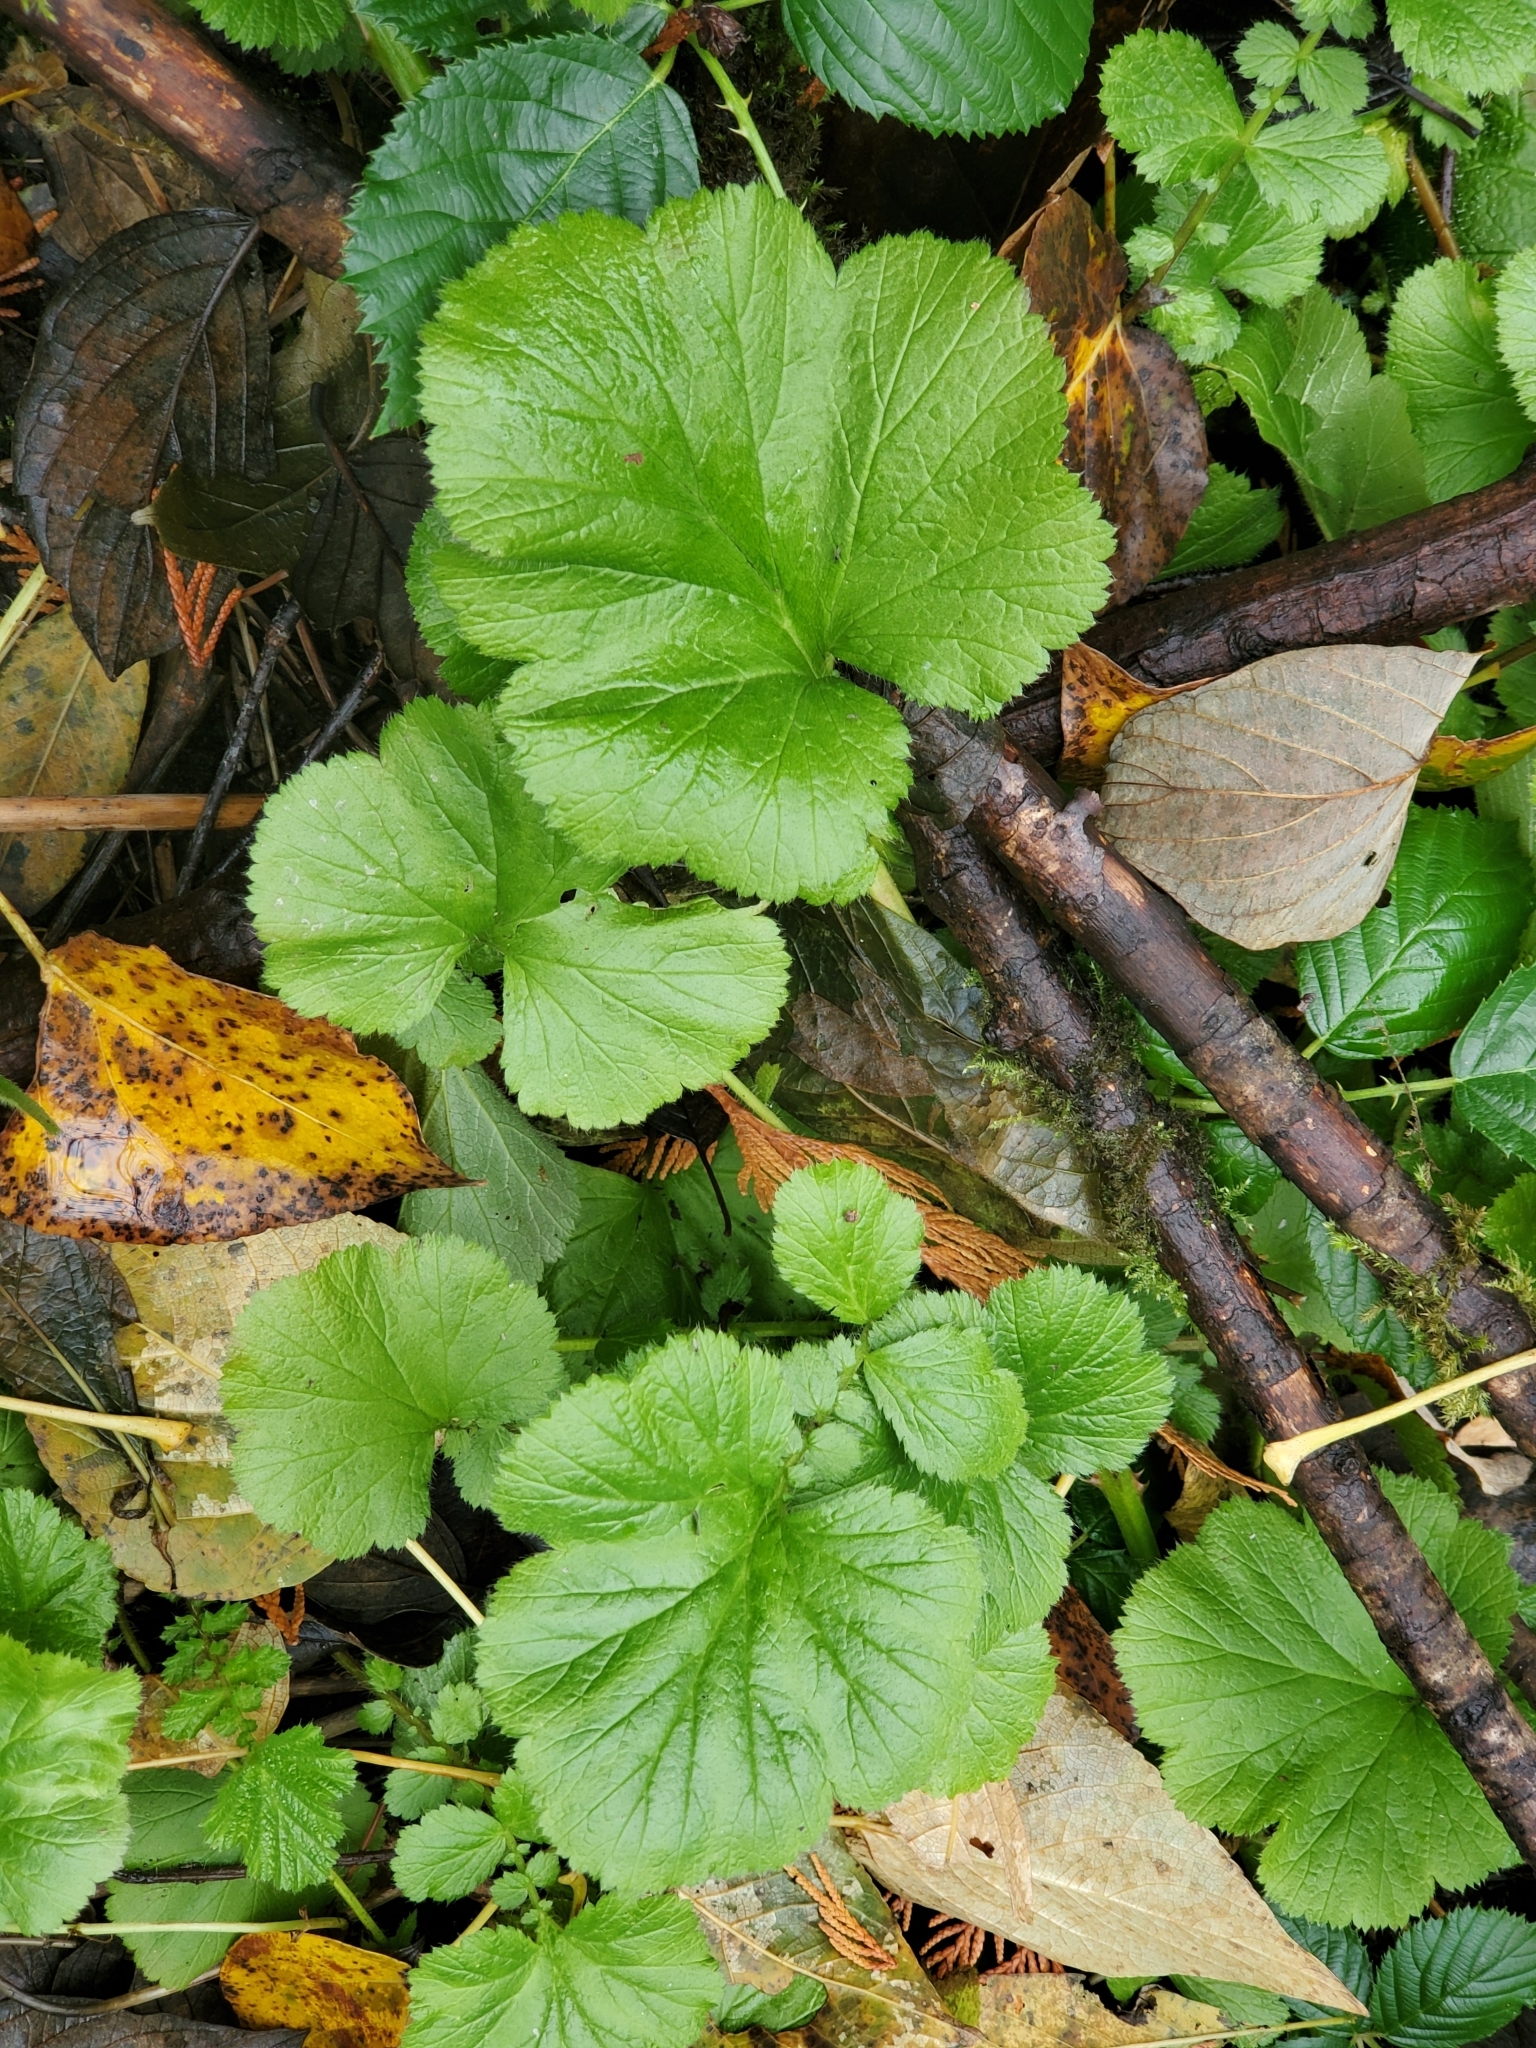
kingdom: Plantae
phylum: Tracheophyta
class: Magnoliopsida
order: Rosales
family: Rosaceae
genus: Geum
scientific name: Geum macrophyllum
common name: Large-leaved avens
